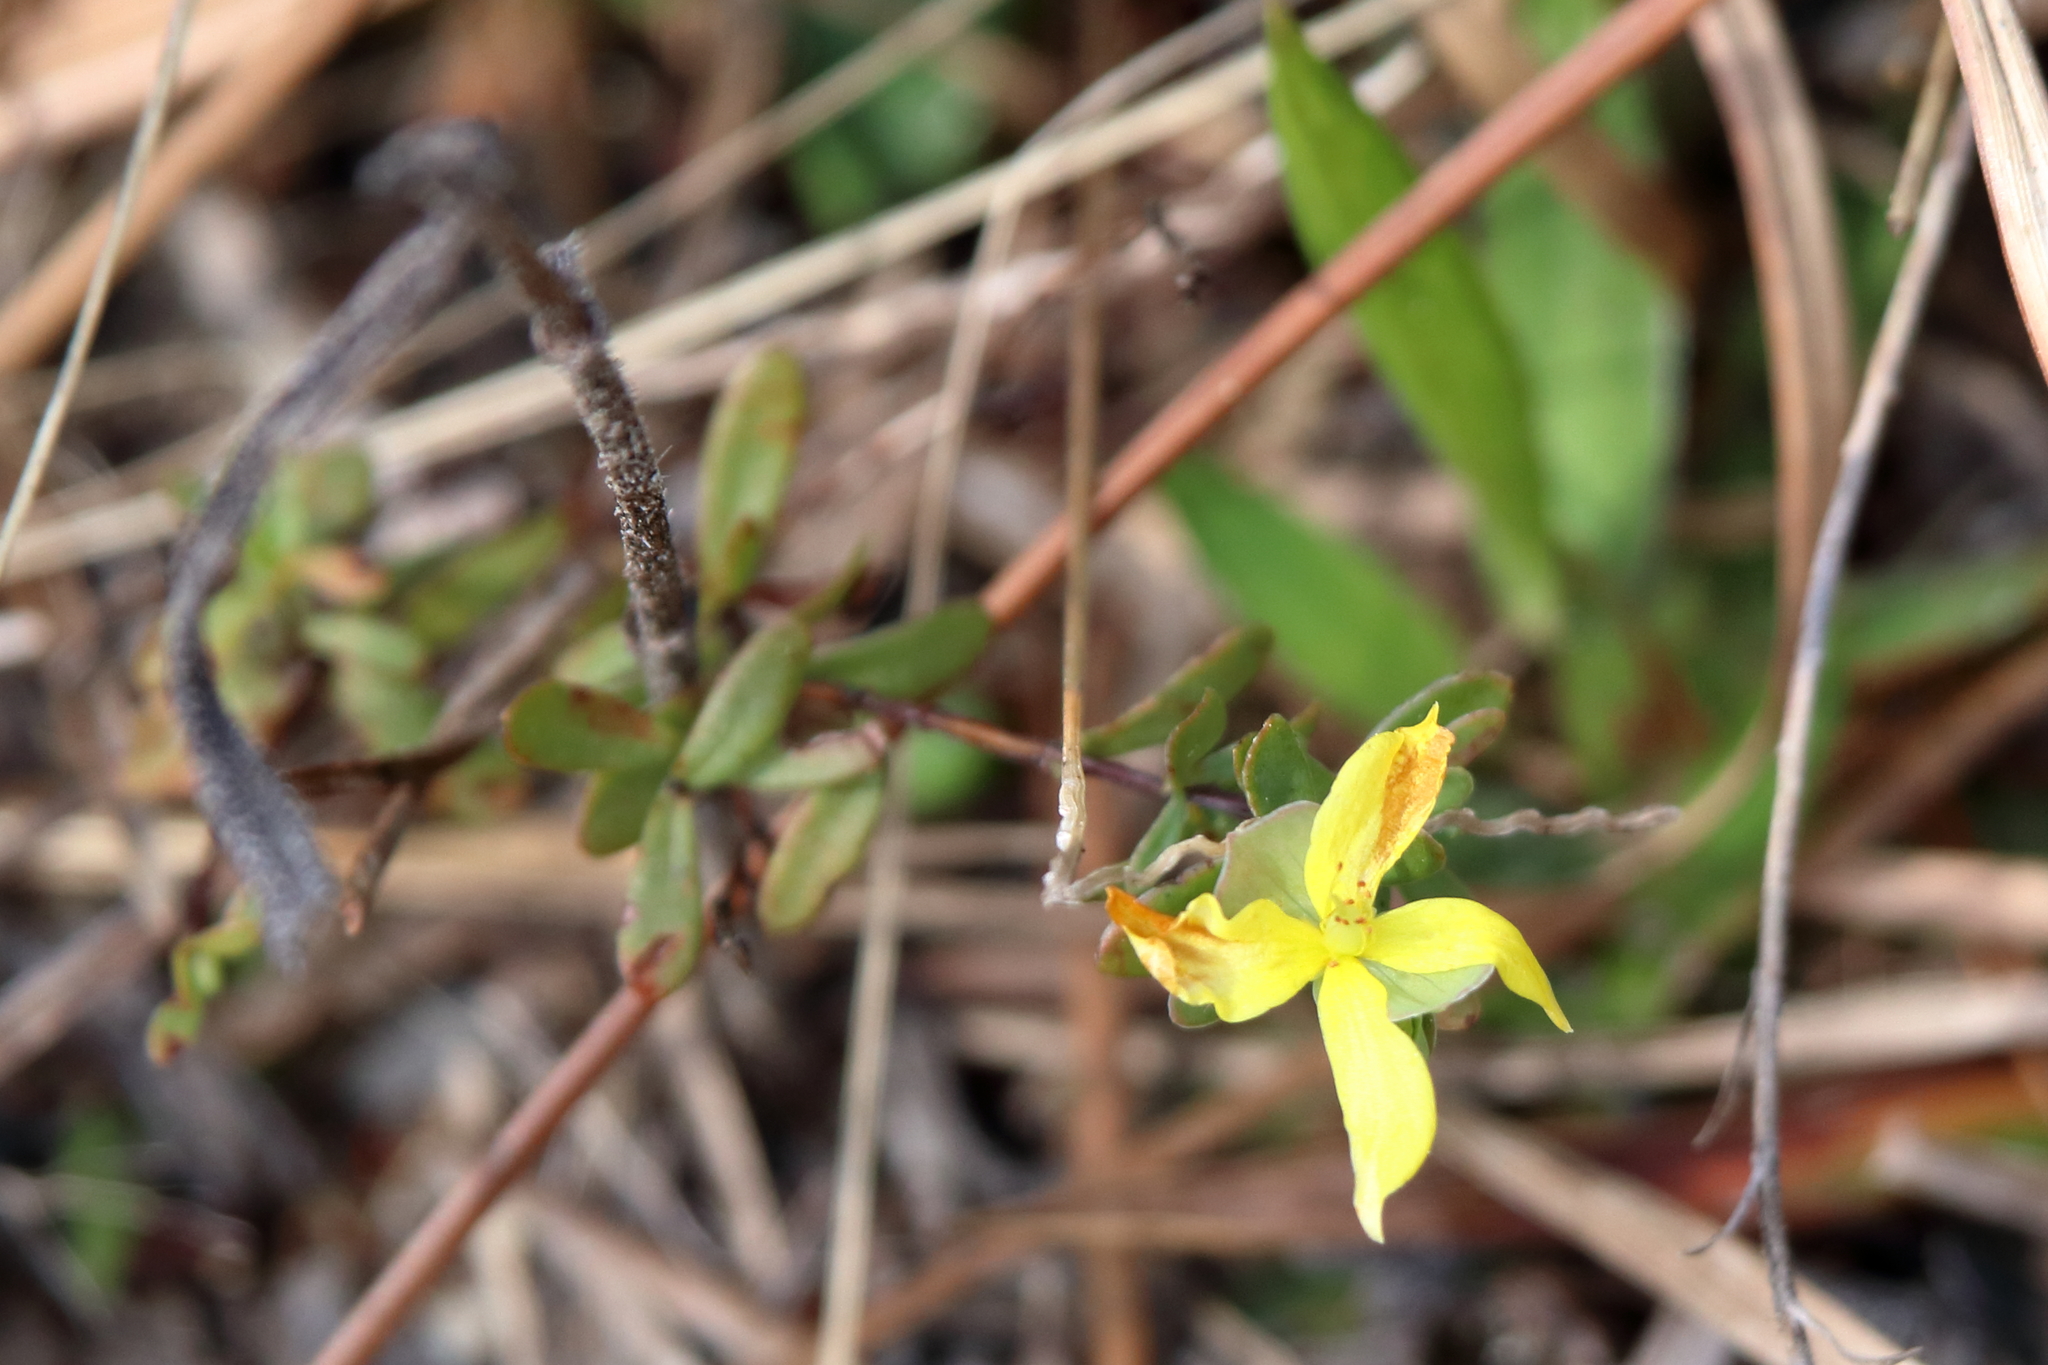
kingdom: Plantae
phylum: Tracheophyta
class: Magnoliopsida
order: Malpighiales
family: Hypericaceae
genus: Hypericum
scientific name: Hypericum hypericoides
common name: St. andrew's cross
